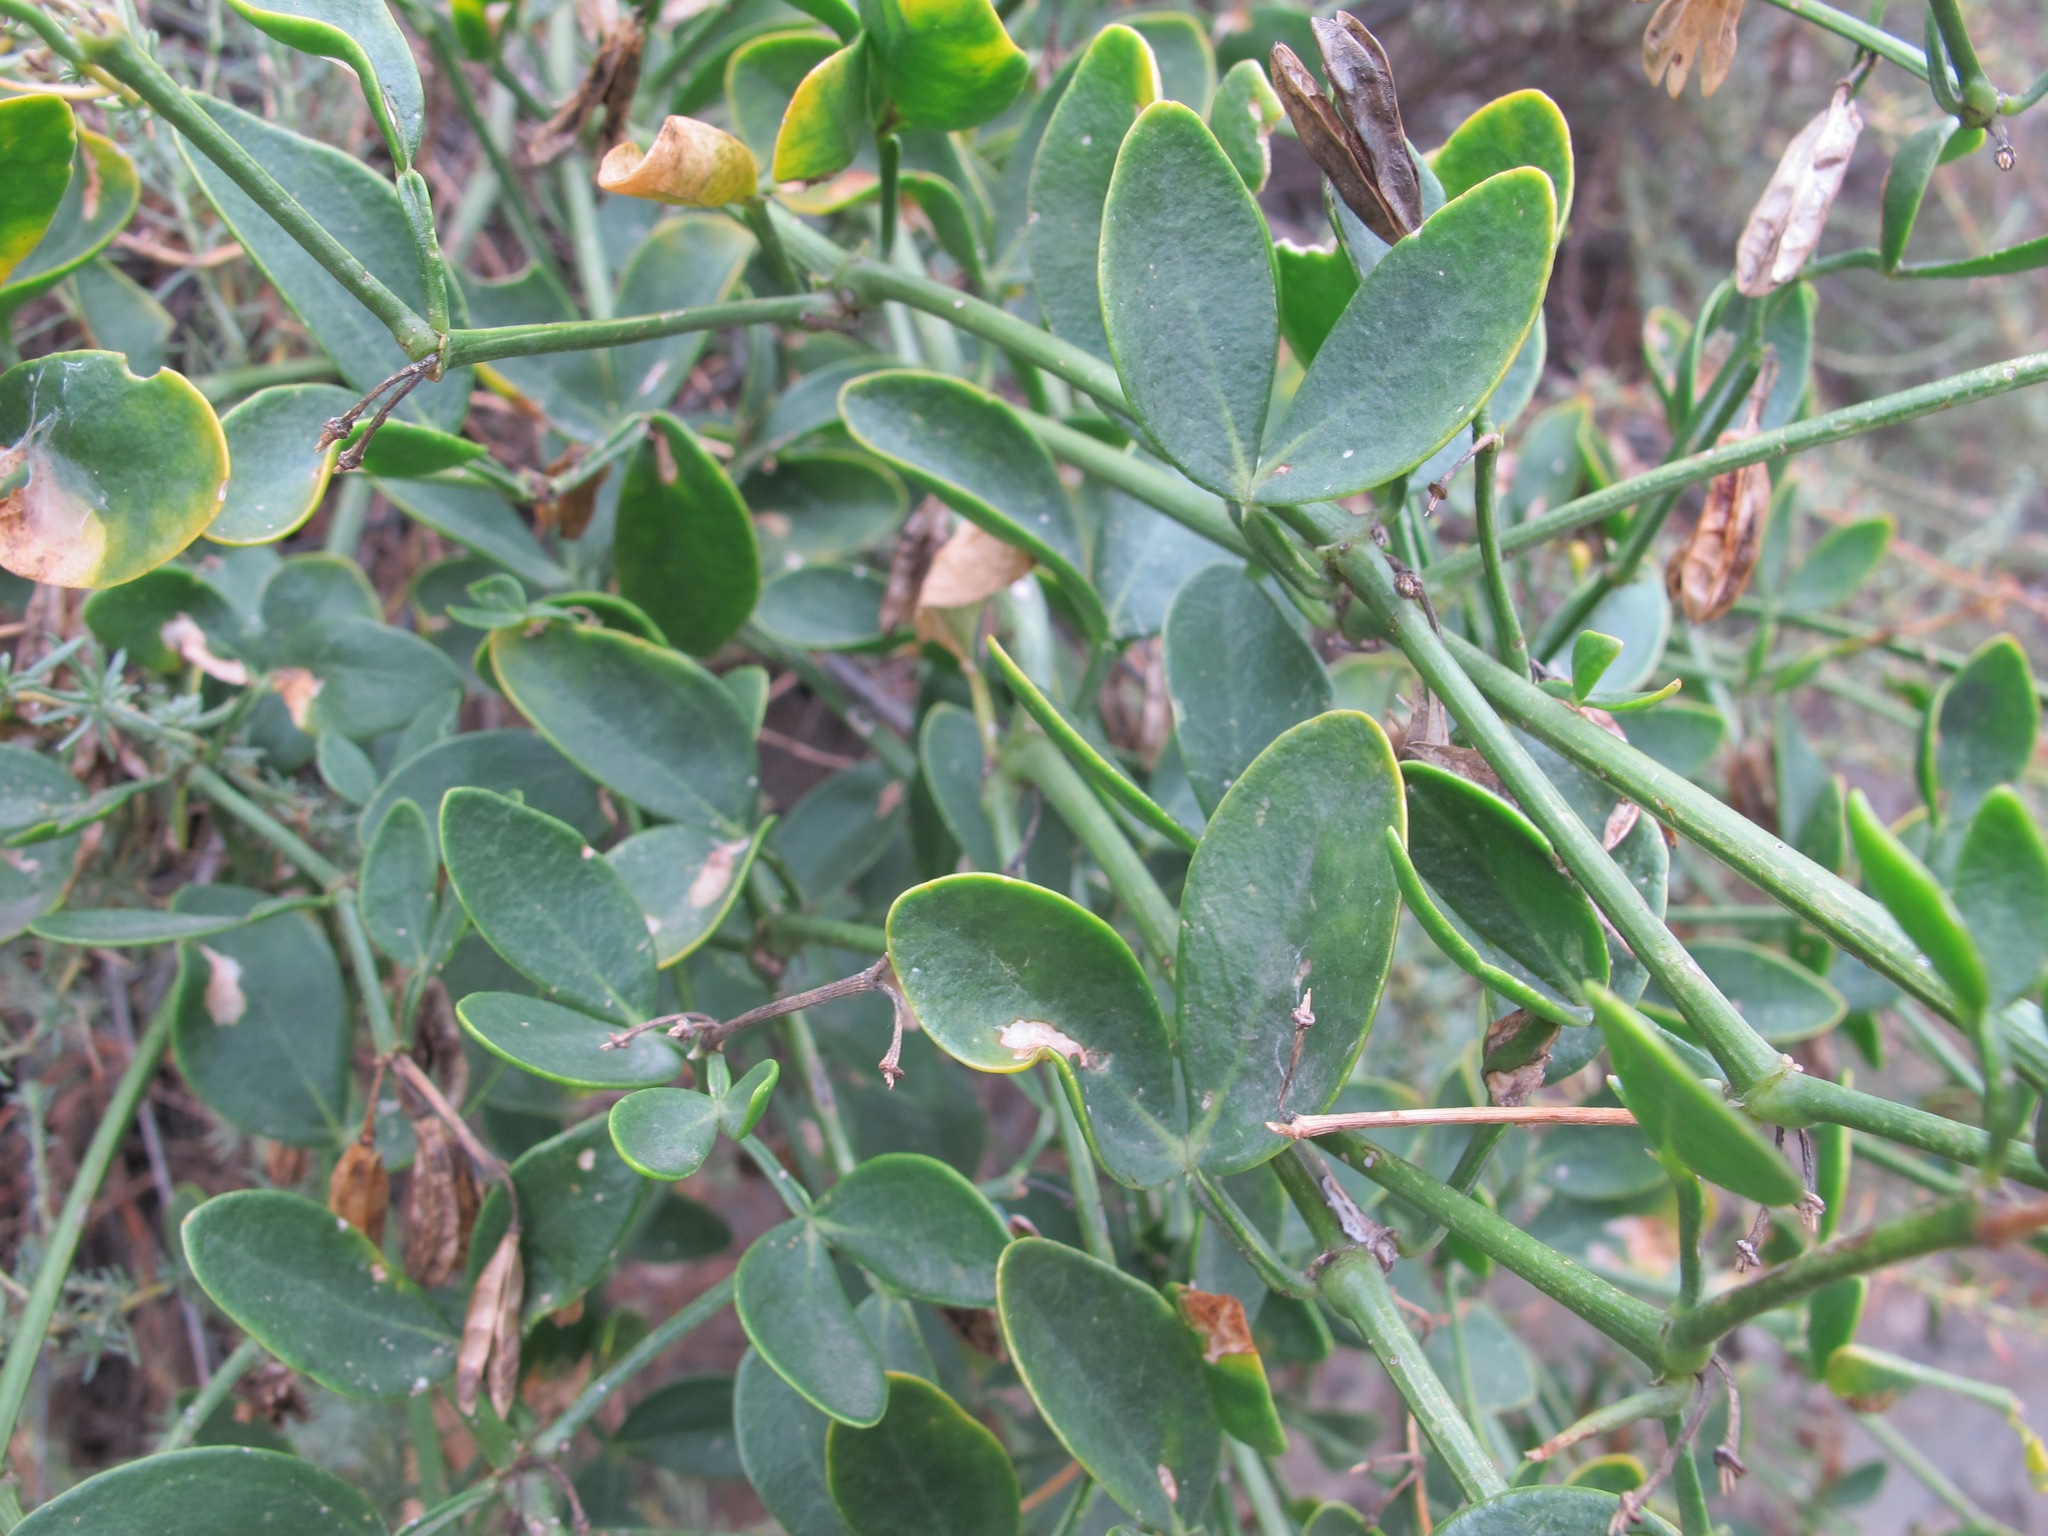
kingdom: Plantae
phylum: Tracheophyta
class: Magnoliopsida
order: Zygophyllales
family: Zygophyllaceae
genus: Zygophyllum
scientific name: Zygophyllum fabago
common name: Syrian beancaper
